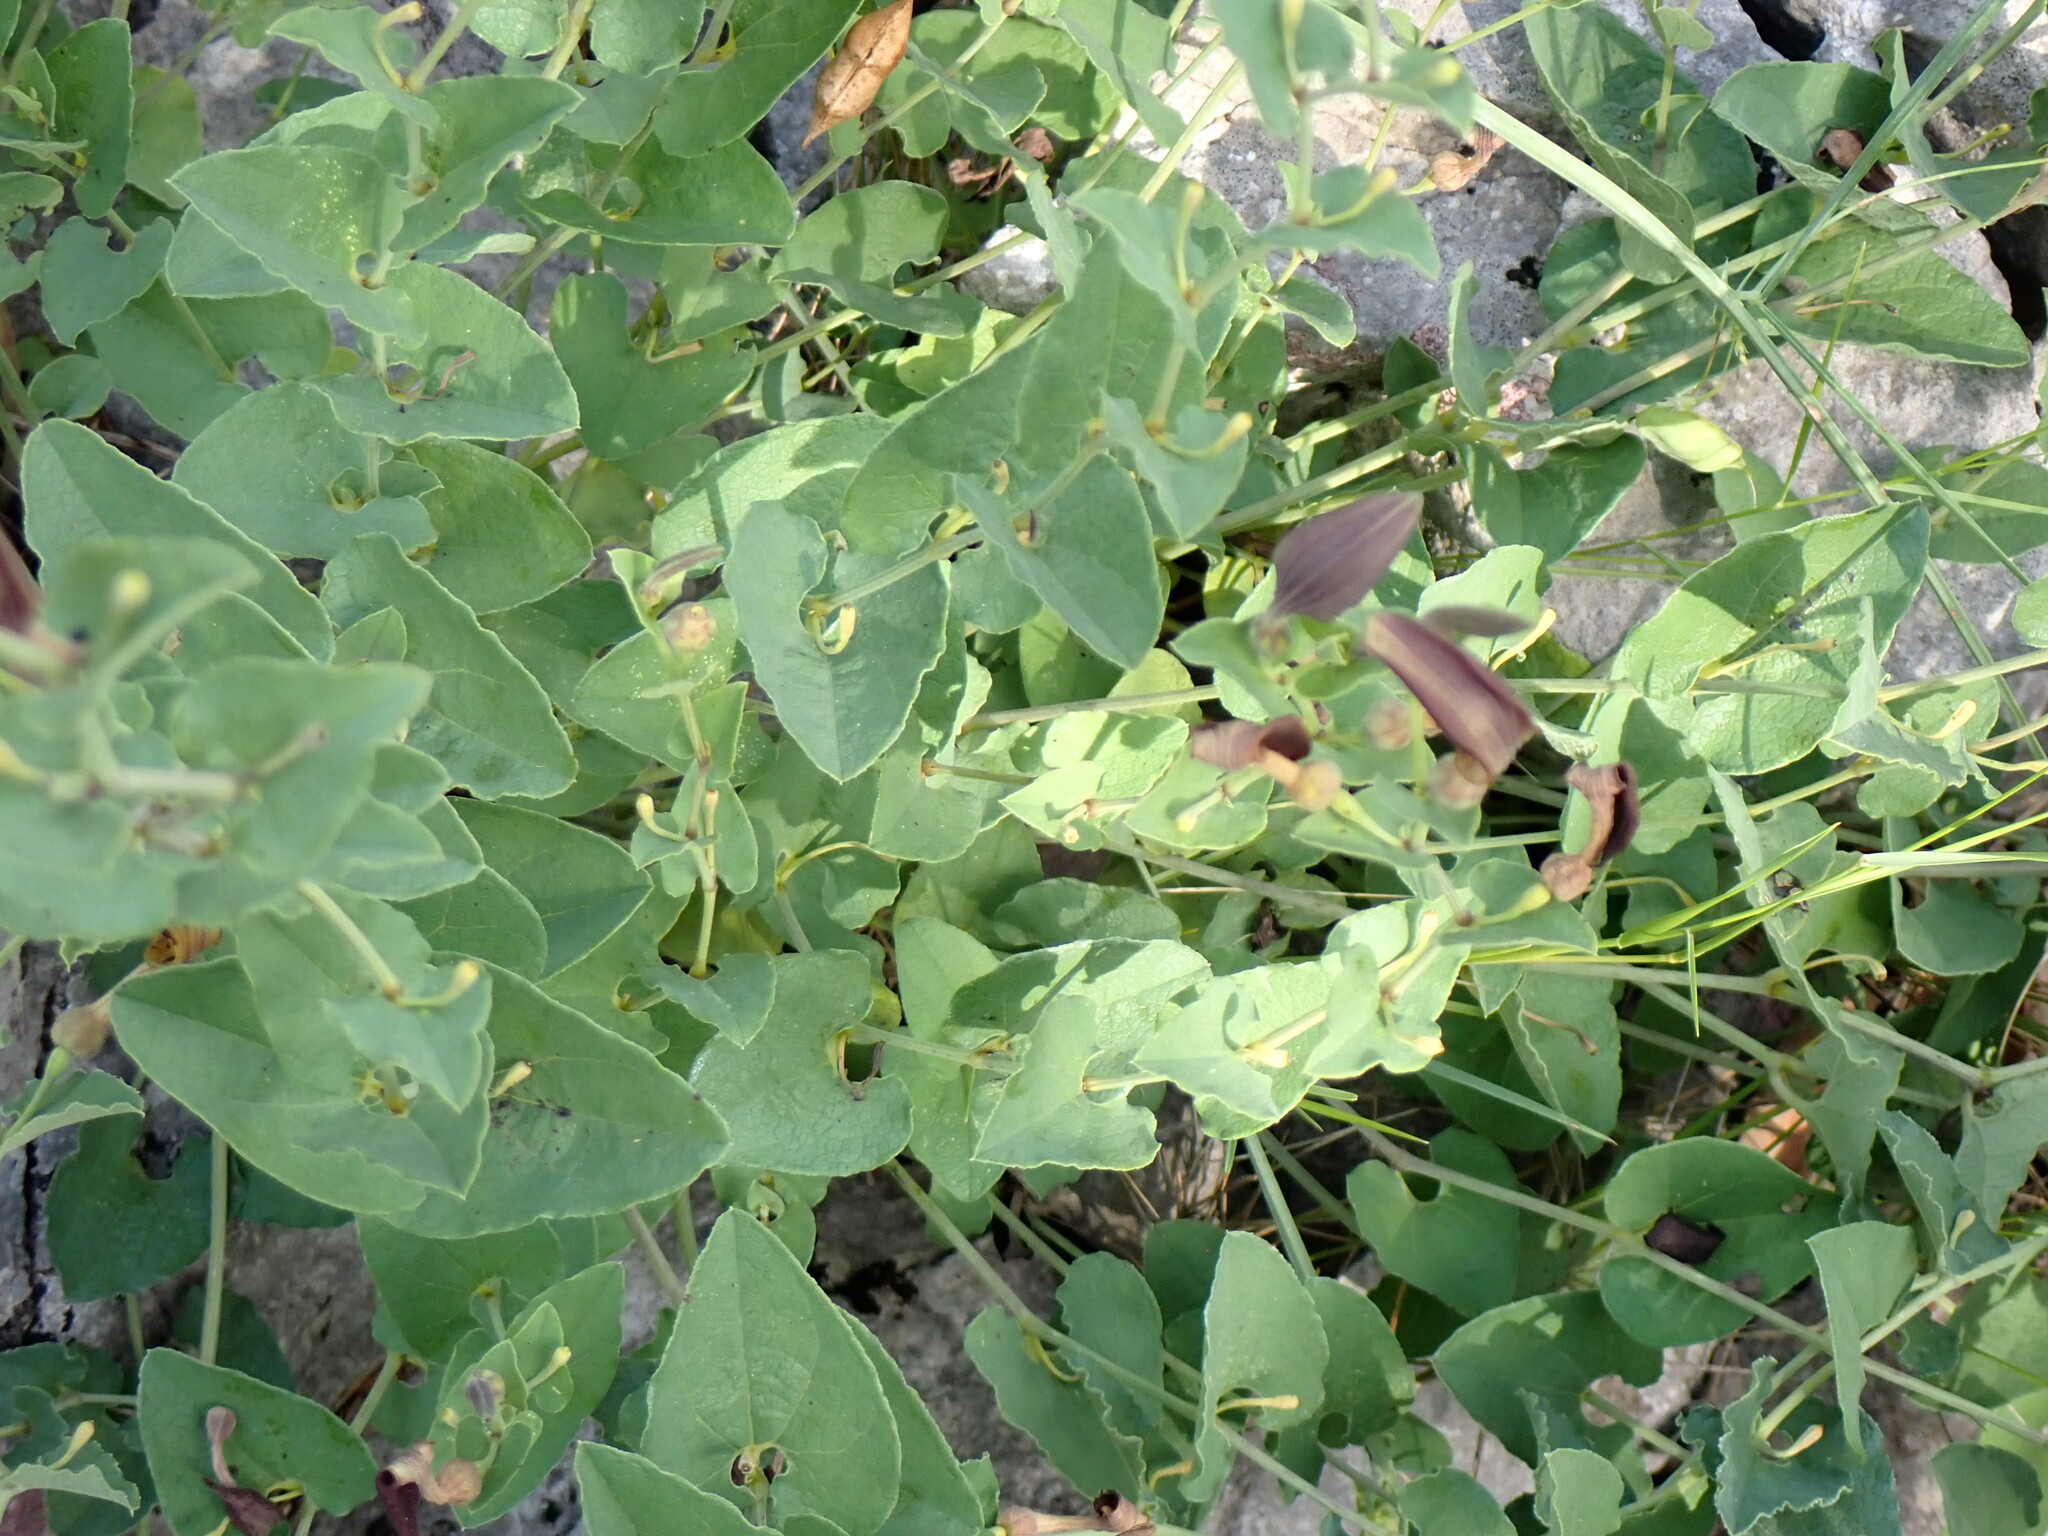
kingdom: Plantae
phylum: Tracheophyta
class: Magnoliopsida
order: Piperales
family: Aristolochiaceae
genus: Aristolochia
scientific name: Aristolochia pistolochia
